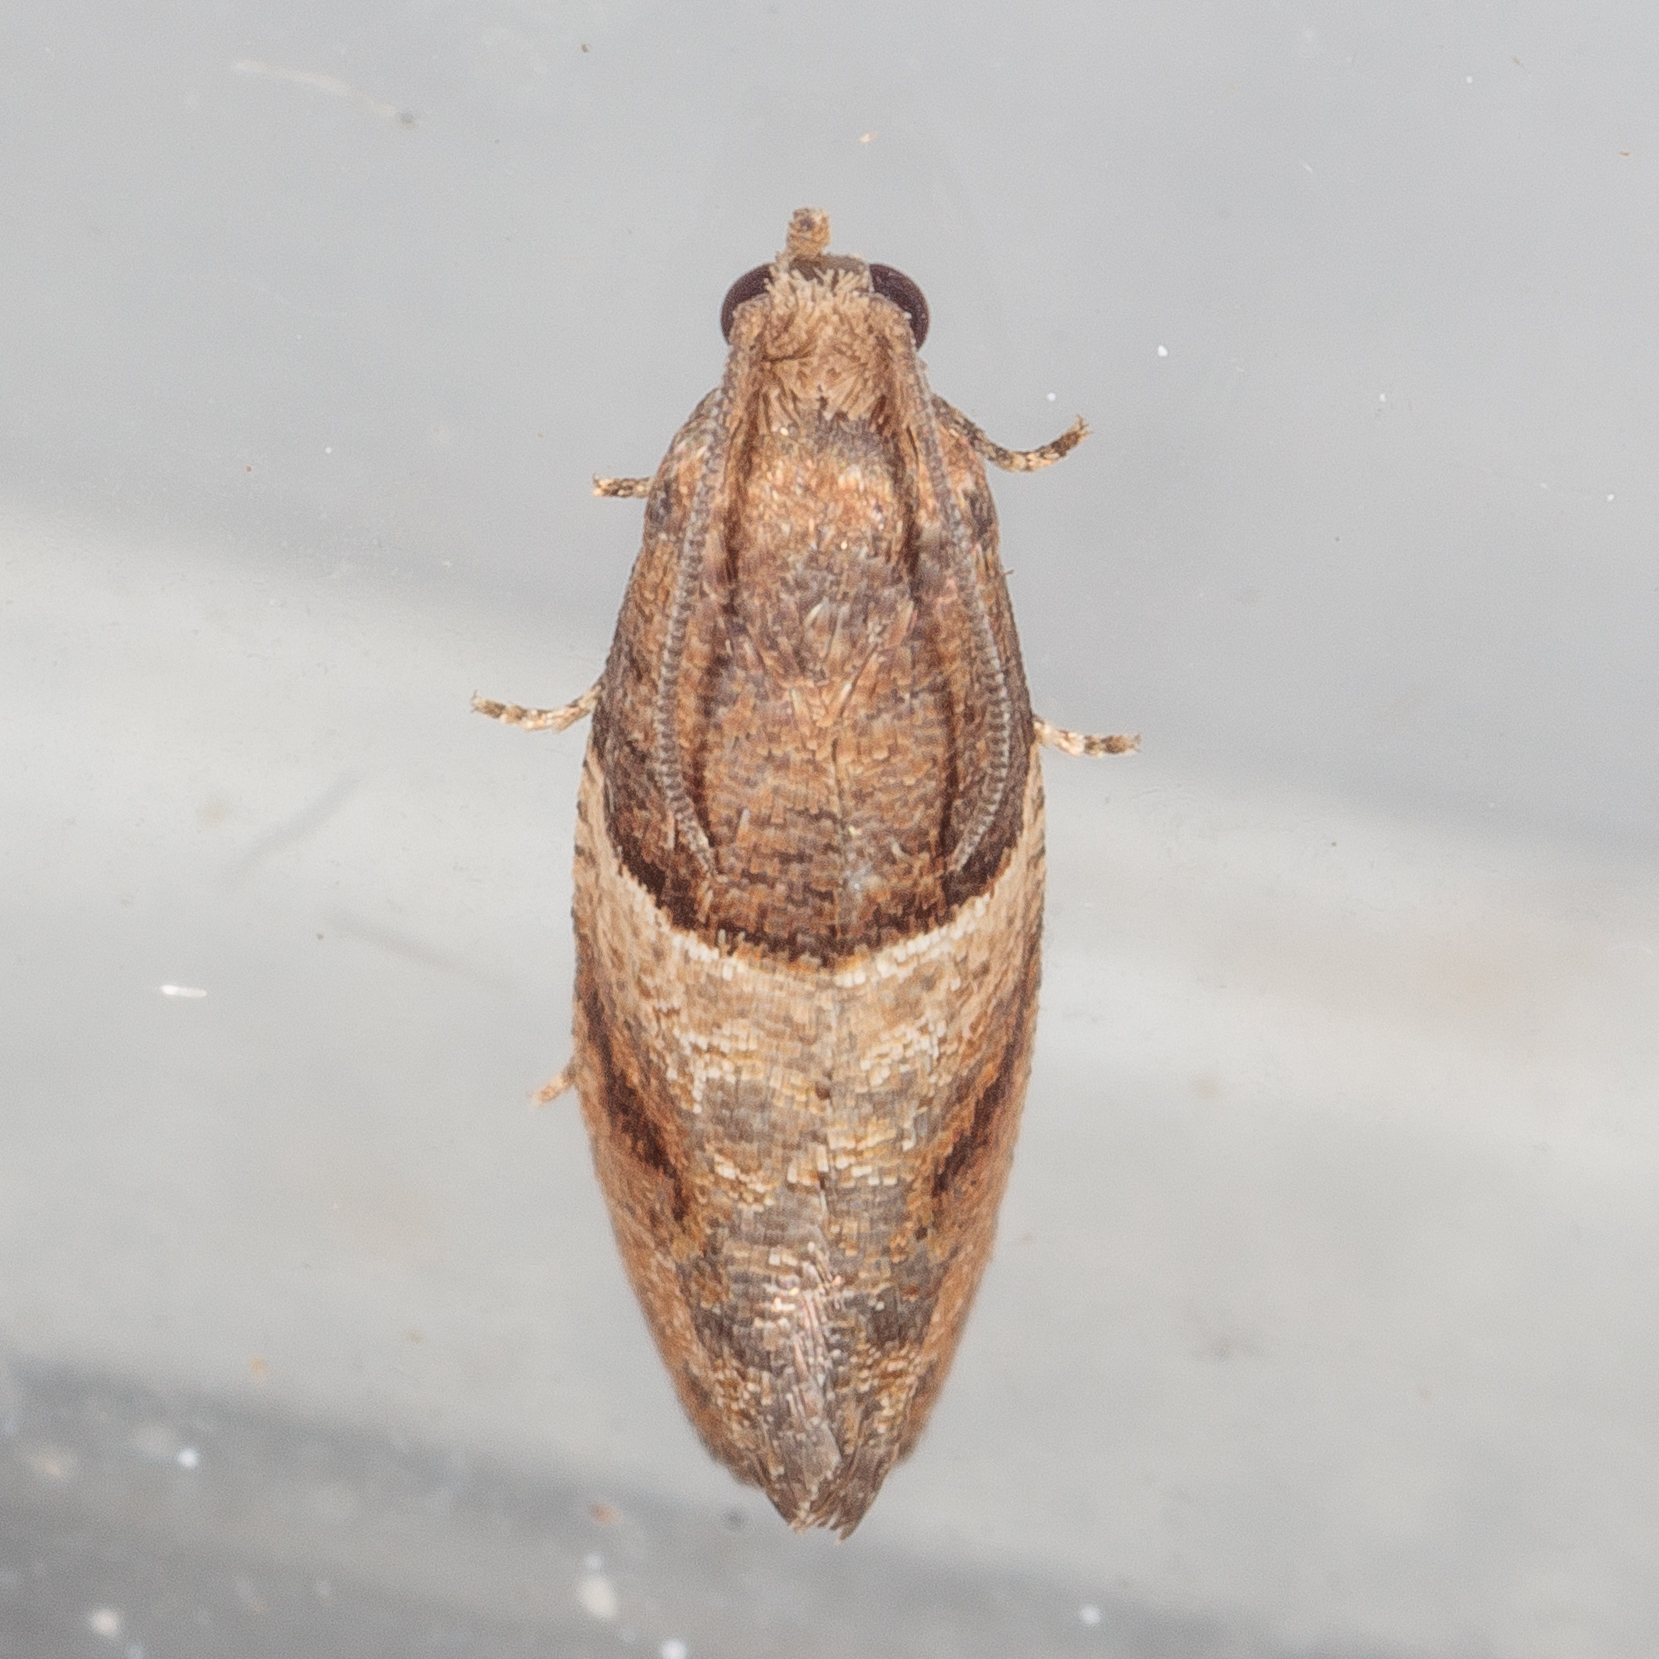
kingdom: Animalia
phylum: Arthropoda
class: Insecta
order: Lepidoptera
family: Tortricidae
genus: Larisa
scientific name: Larisa subsolana
